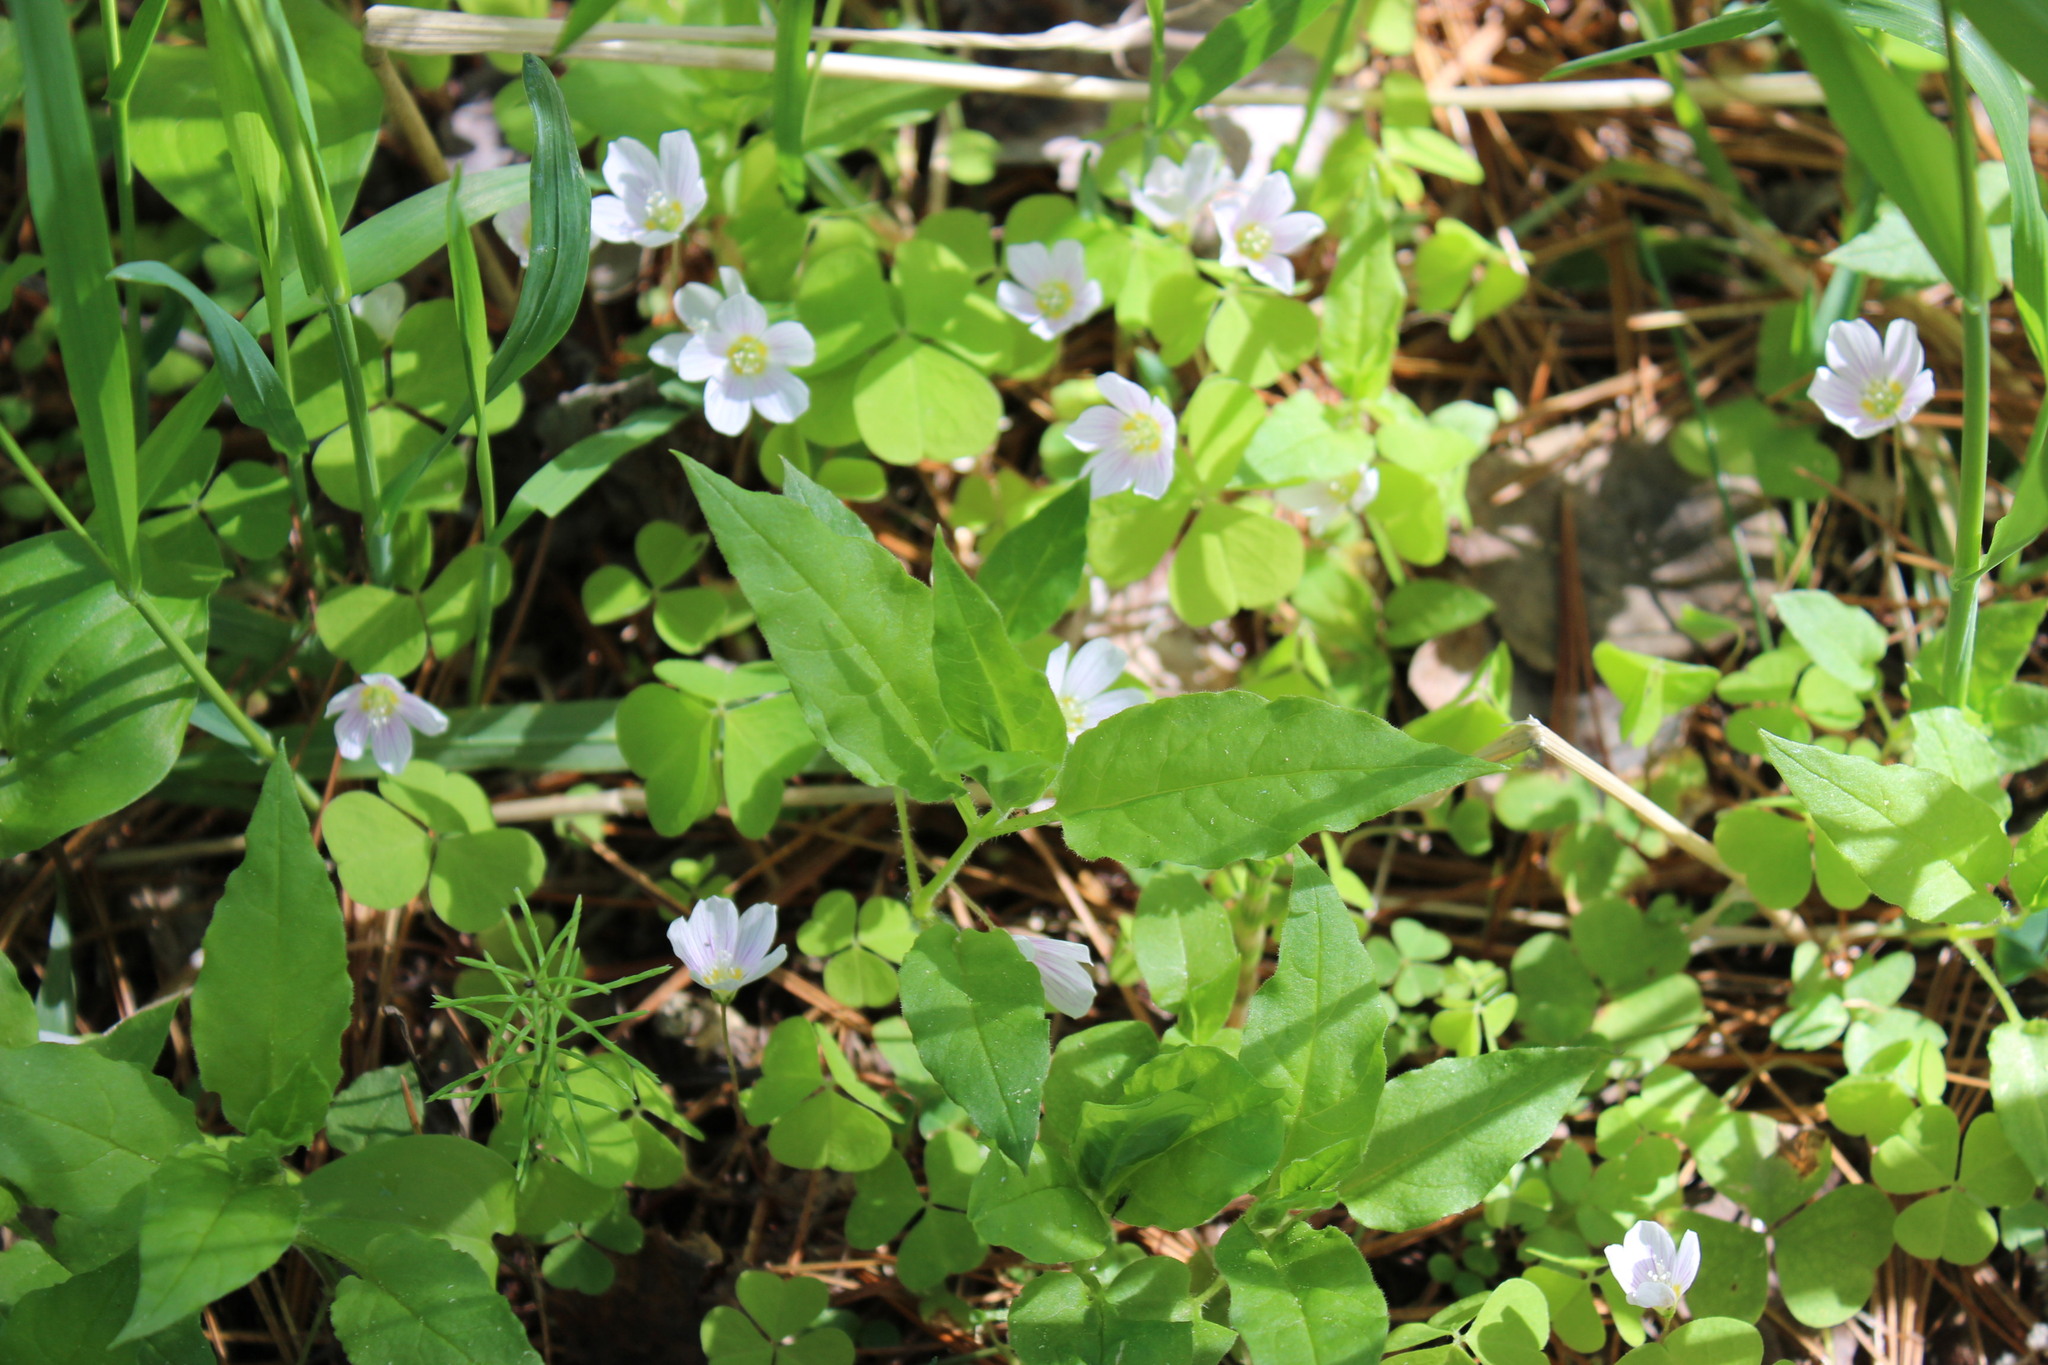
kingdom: Plantae
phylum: Tracheophyta
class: Magnoliopsida
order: Caryophyllales
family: Caryophyllaceae
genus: Stellaria
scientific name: Stellaria bungeana
